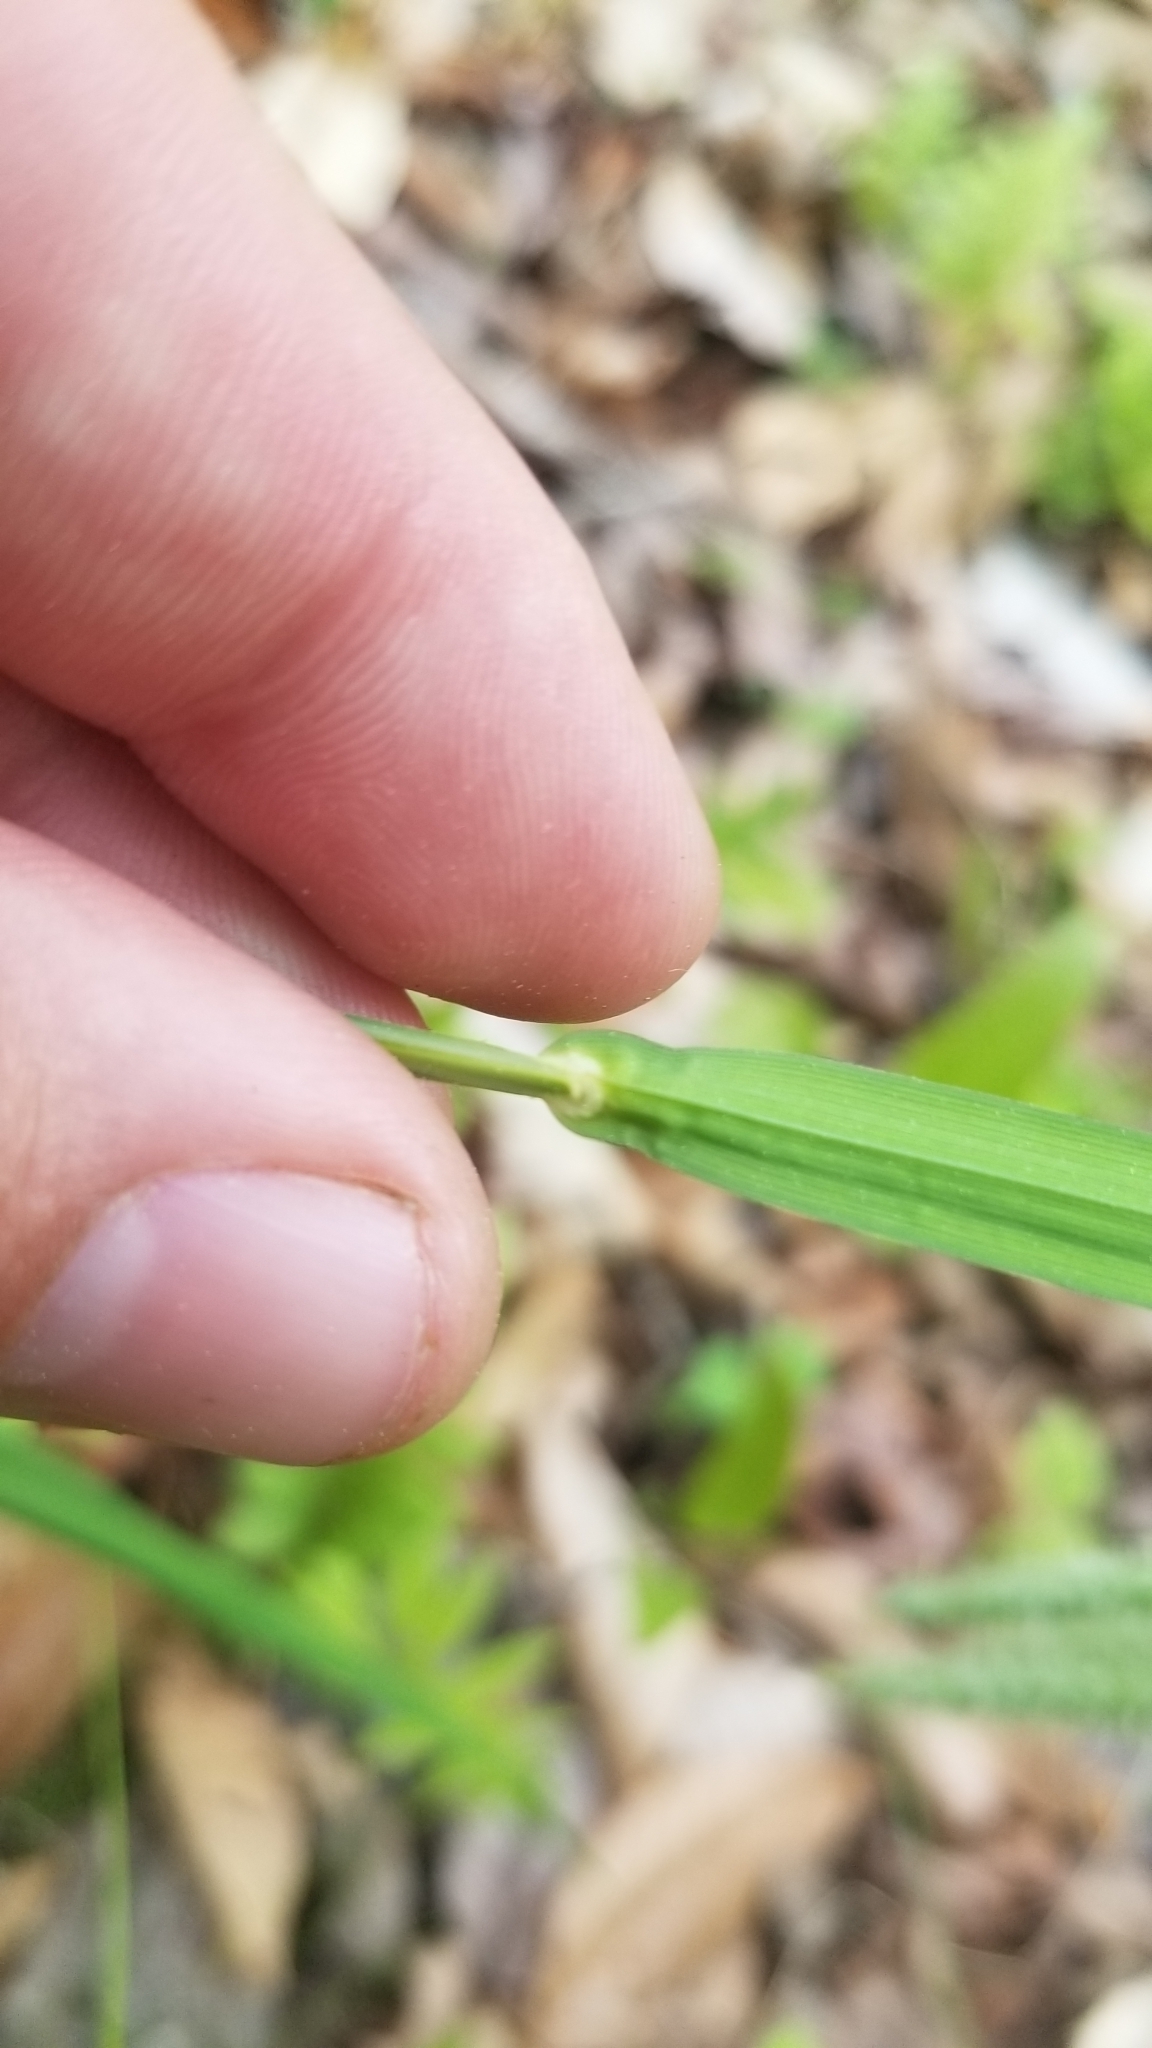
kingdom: Plantae
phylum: Tracheophyta
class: Liliopsida
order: Poales
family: Cyperaceae
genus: Carex
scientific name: Carex crinita
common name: Fringed sedge
